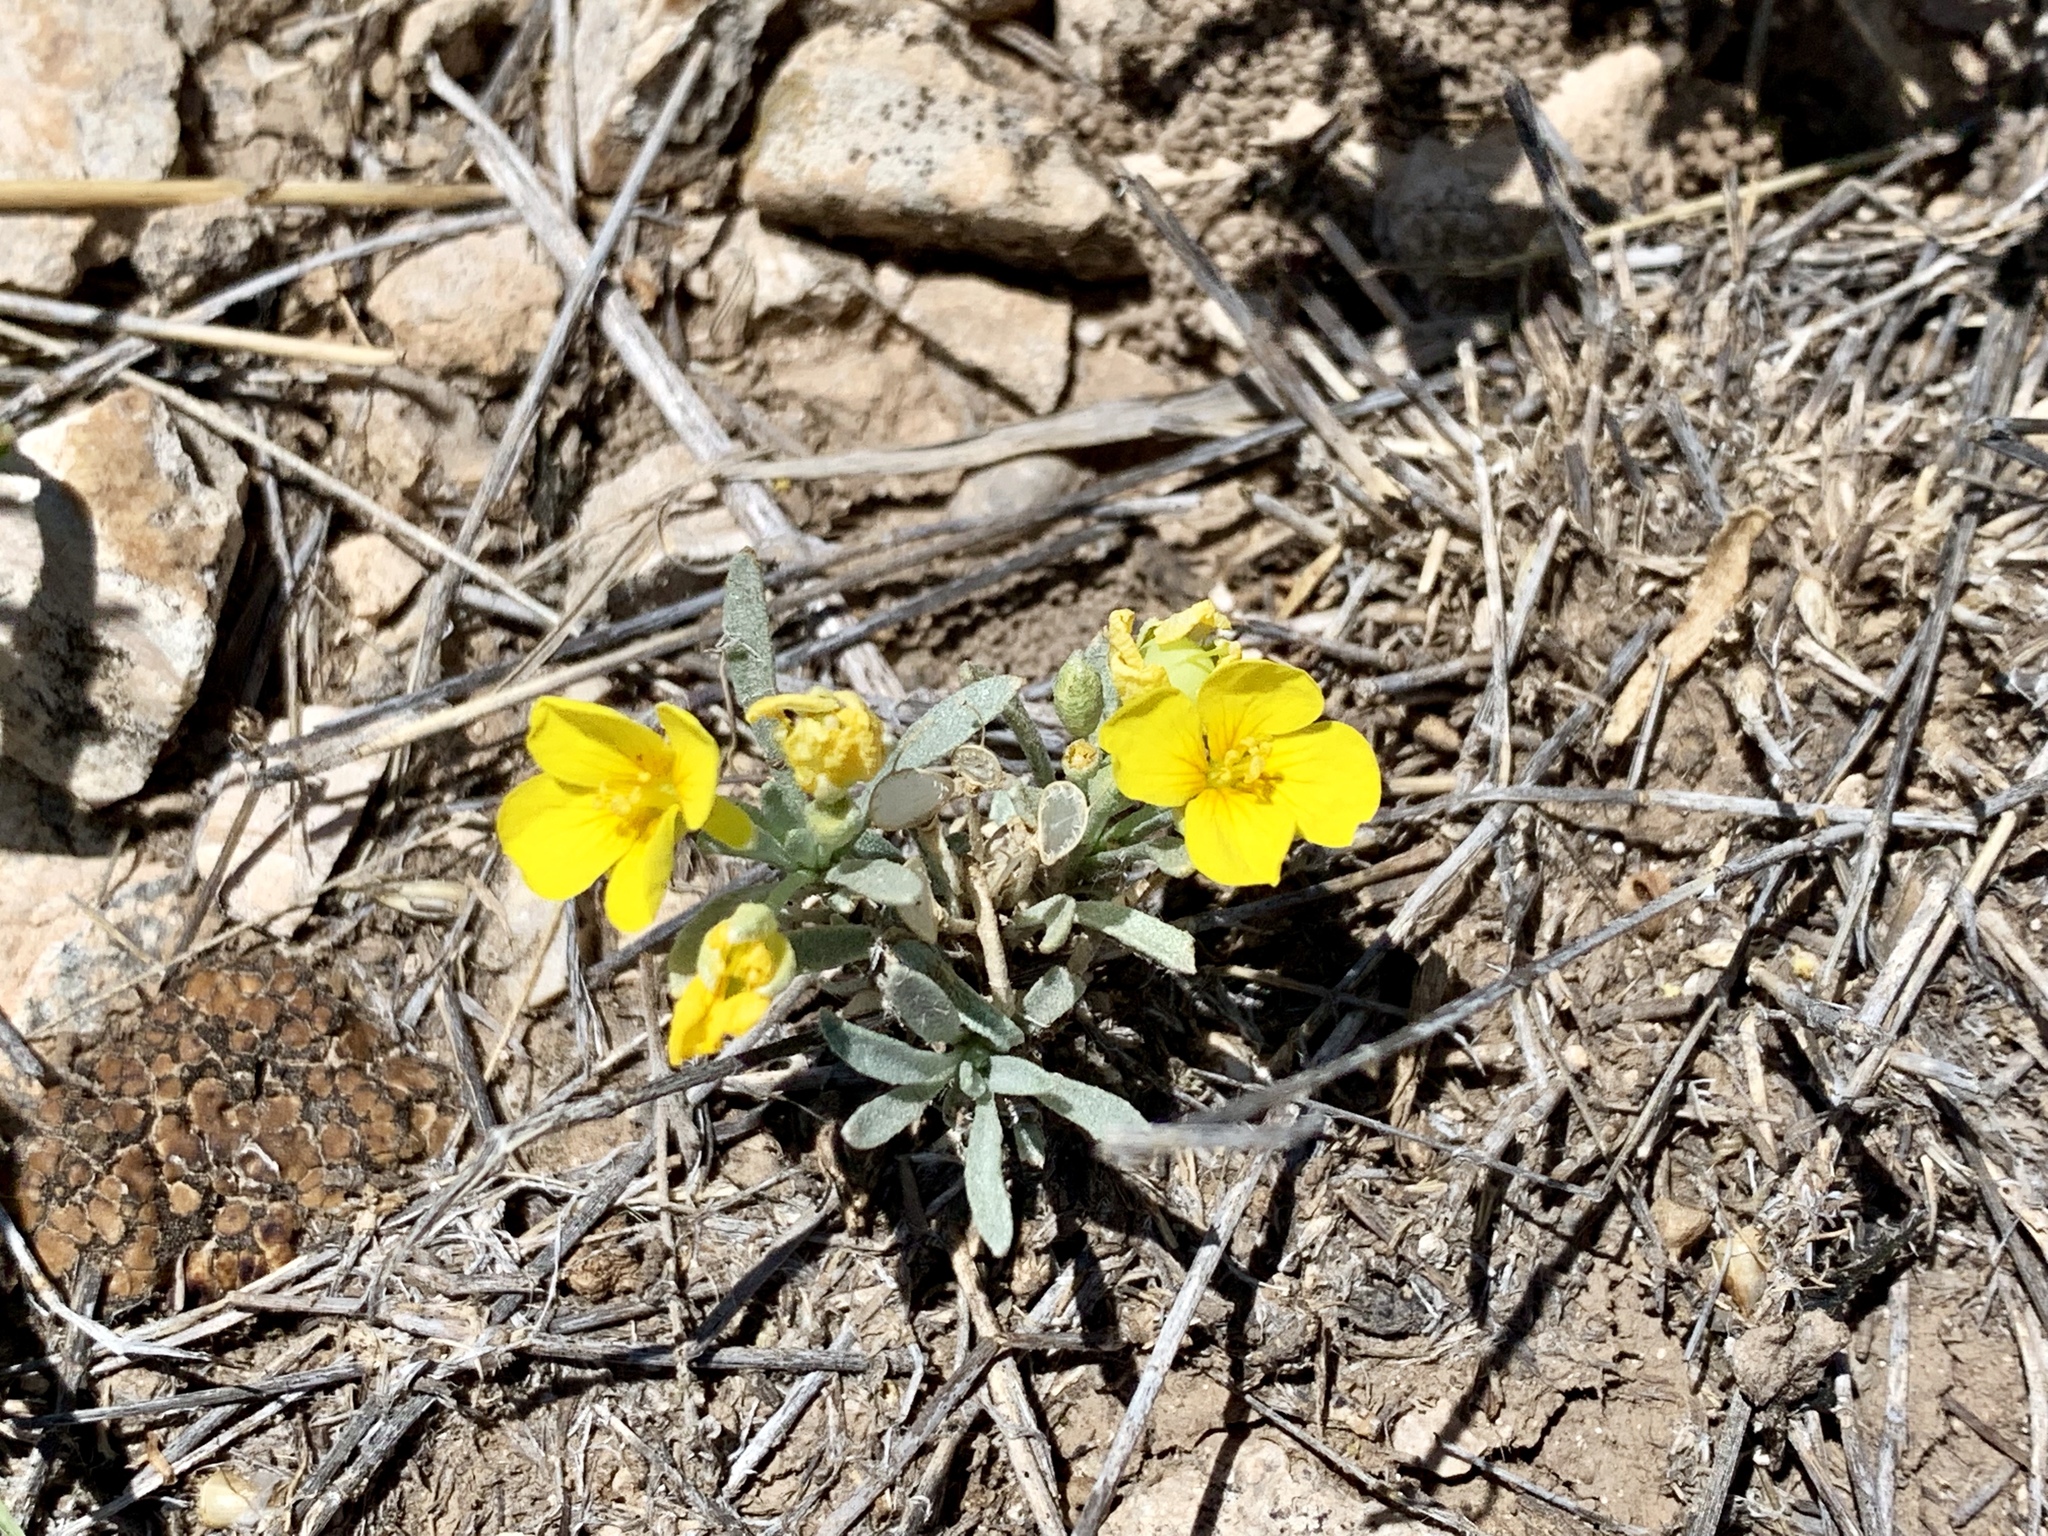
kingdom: Plantae
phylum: Tracheophyta
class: Magnoliopsida
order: Brassicales
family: Brassicaceae
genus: Physaria
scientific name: Physaria fendleri
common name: Fendler's bladderpod
